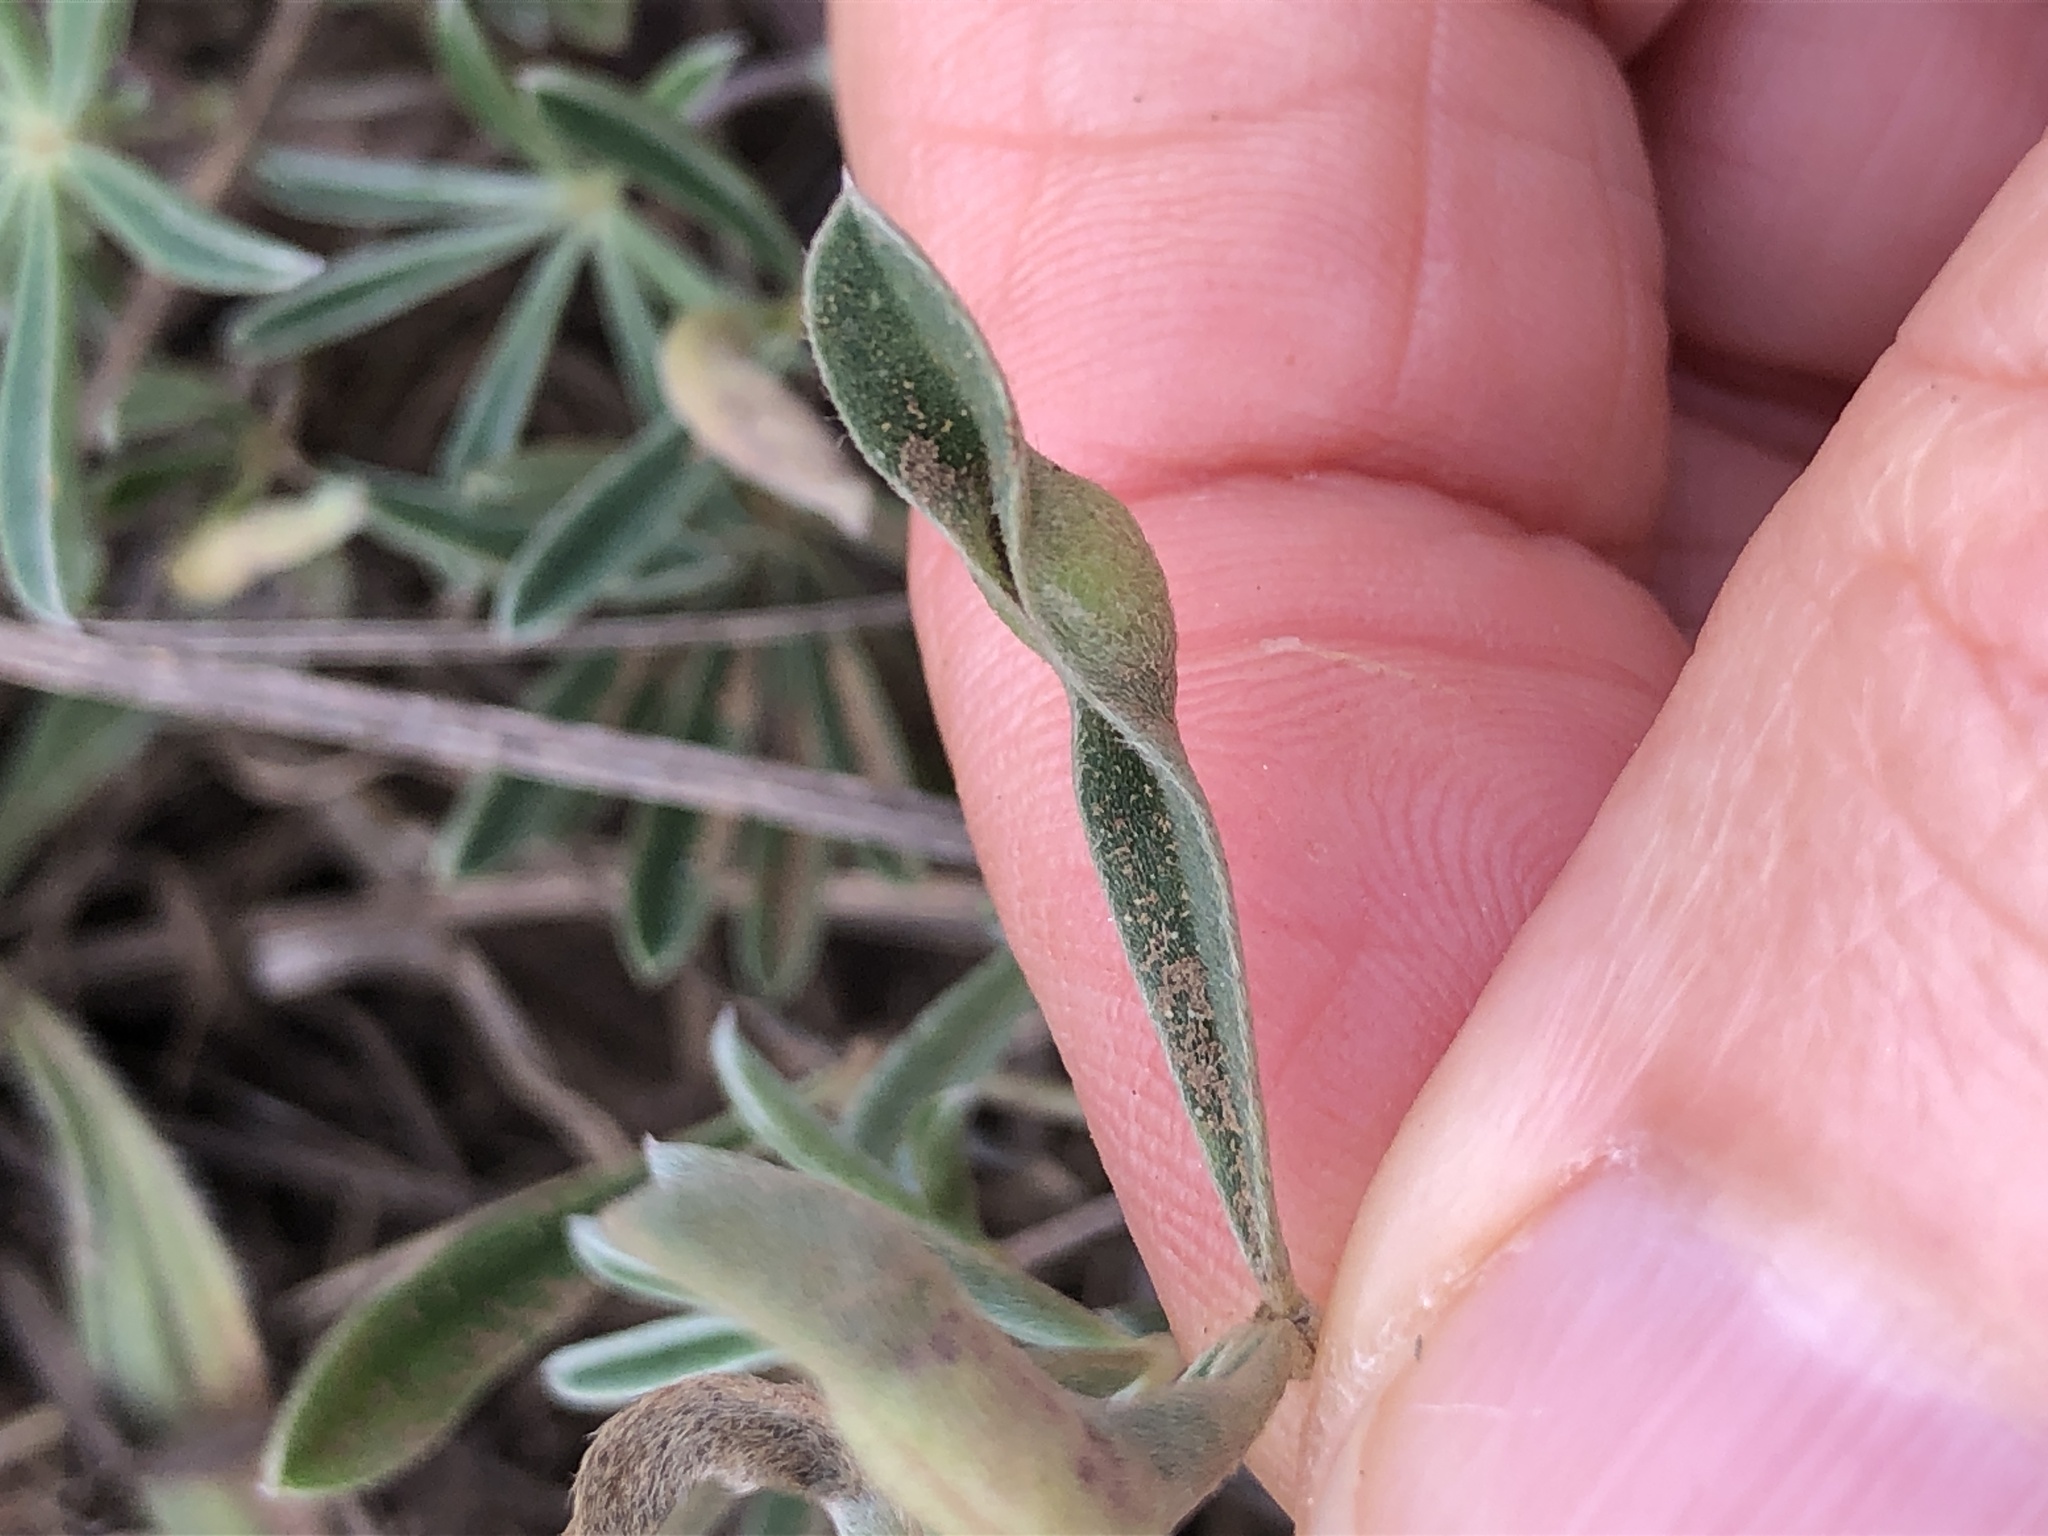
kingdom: Animalia
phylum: Arthropoda
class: Insecta
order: Diptera
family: Cecidomyiidae
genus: Dasineura
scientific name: Dasineura lupinorum
